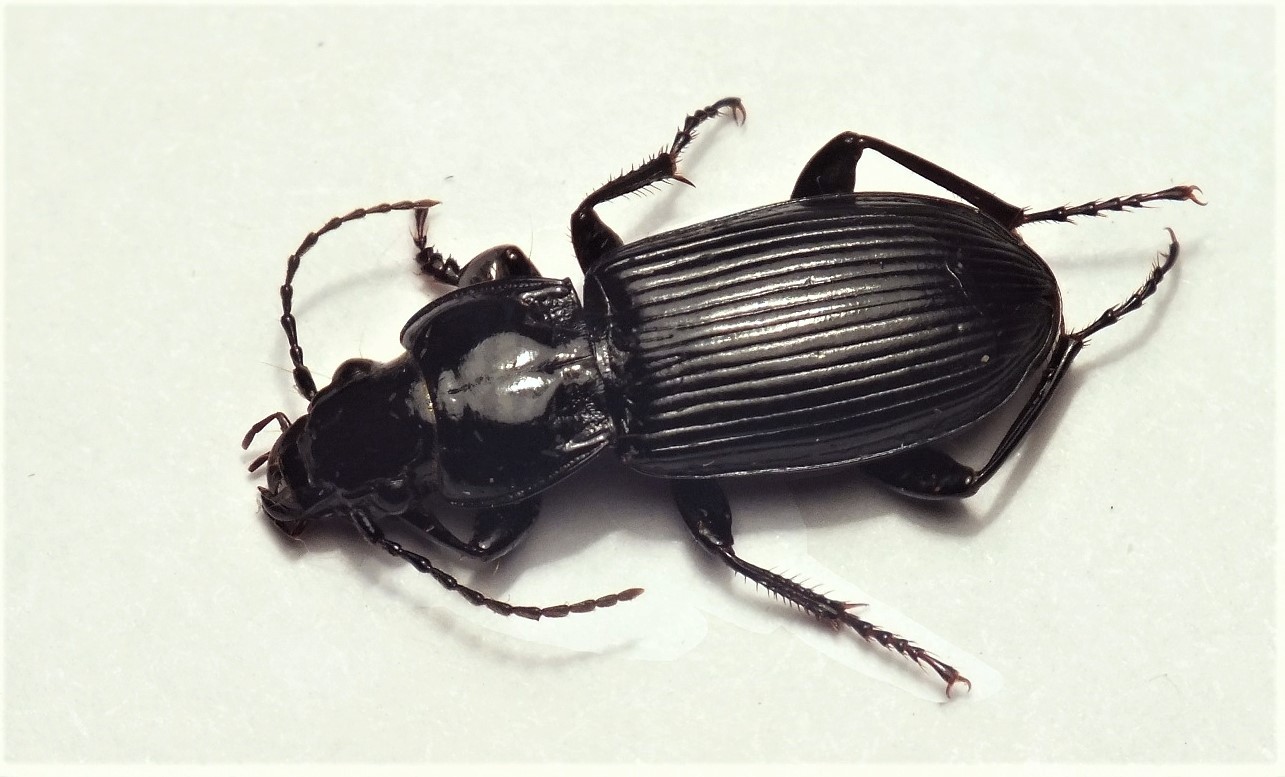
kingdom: Animalia
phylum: Arthropoda
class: Insecta
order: Coleoptera
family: Carabidae
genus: Pterostichus
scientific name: Pterostichus melanarius
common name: European dark harp ground beetle
